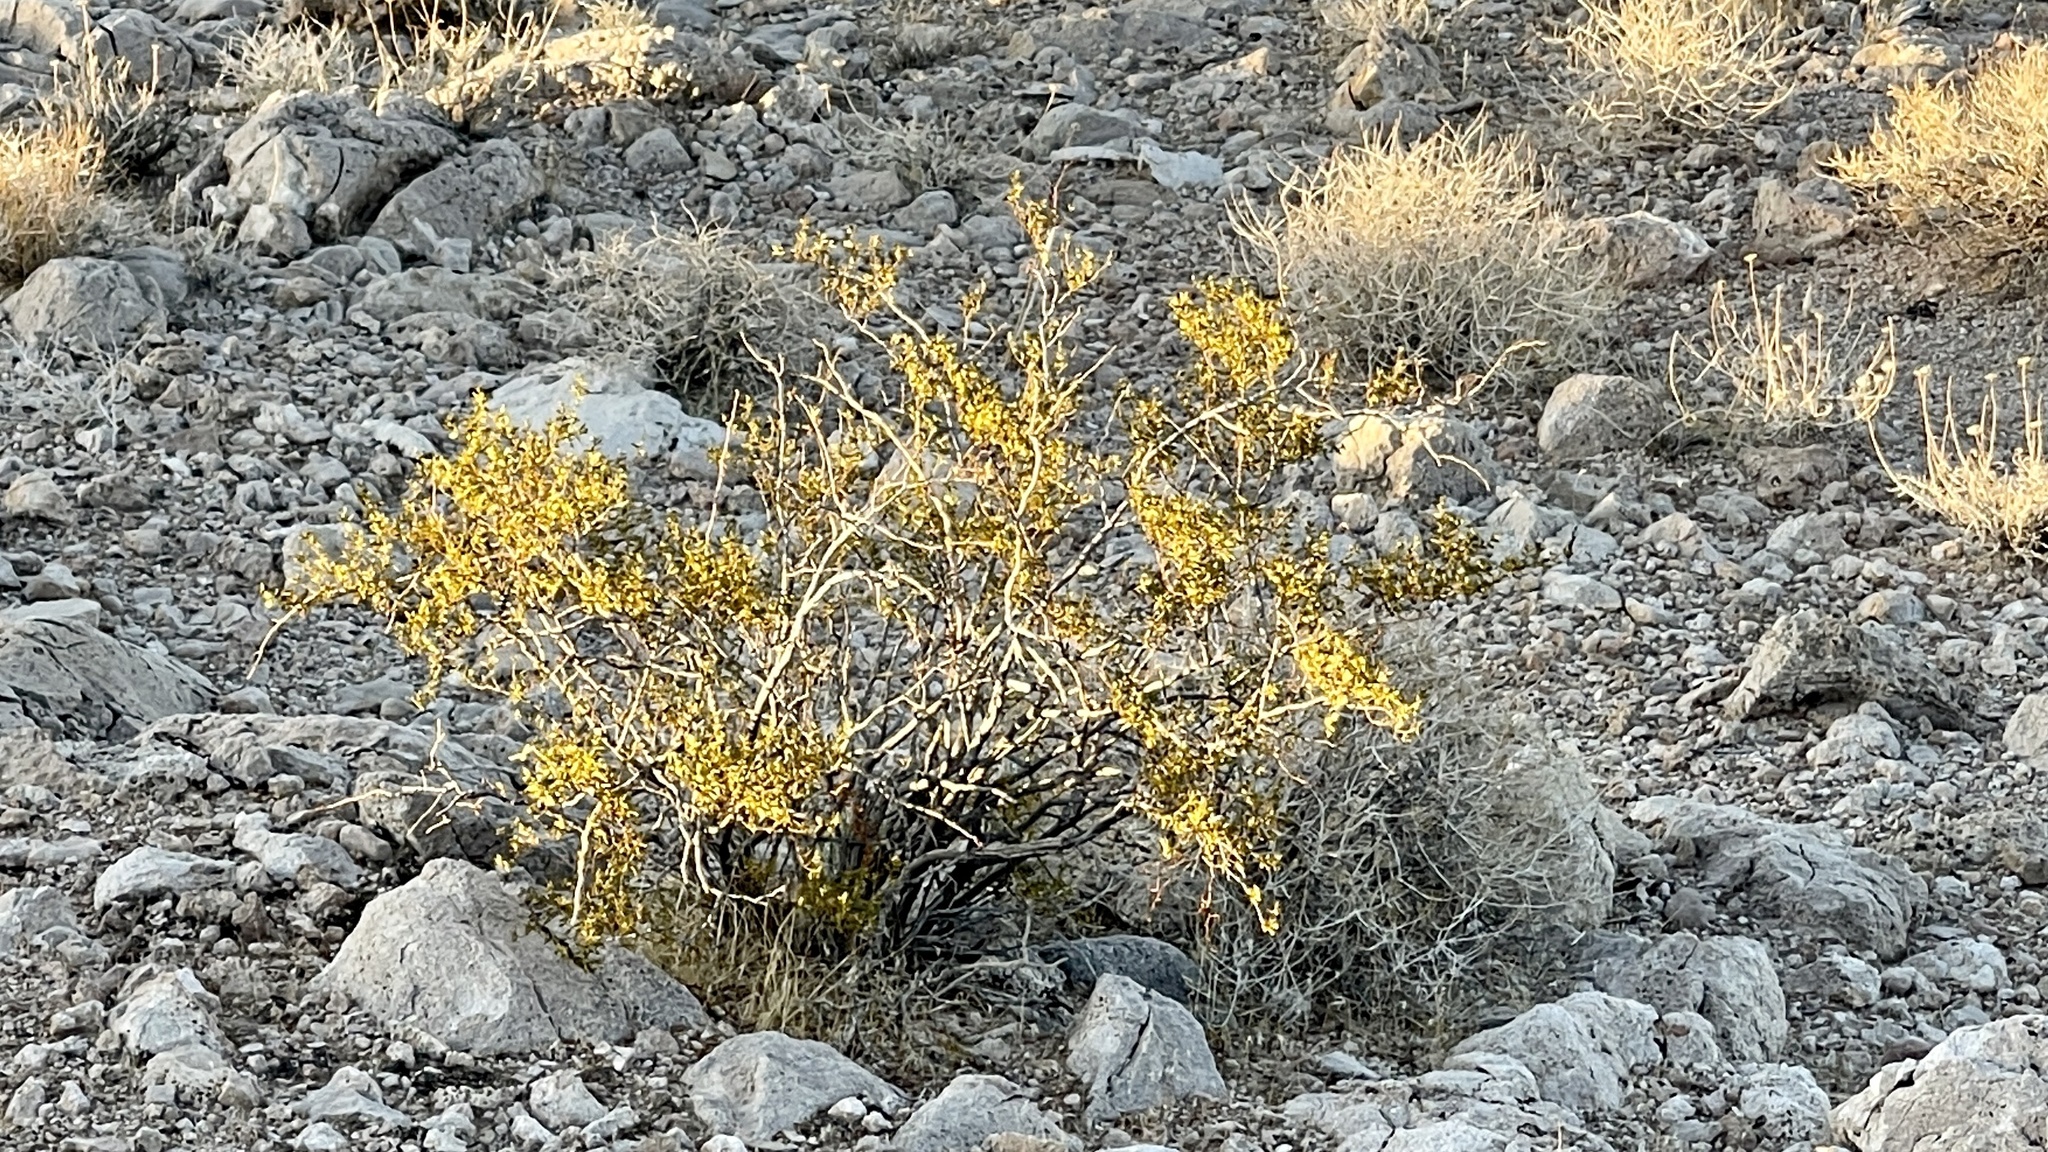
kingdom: Plantae
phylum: Tracheophyta
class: Magnoliopsida
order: Zygophyllales
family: Zygophyllaceae
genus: Larrea
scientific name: Larrea tridentata
